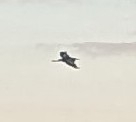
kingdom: Animalia
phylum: Chordata
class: Aves
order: Pelecaniformes
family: Ardeidae
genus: Ardea
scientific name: Ardea herodias
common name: Great blue heron
